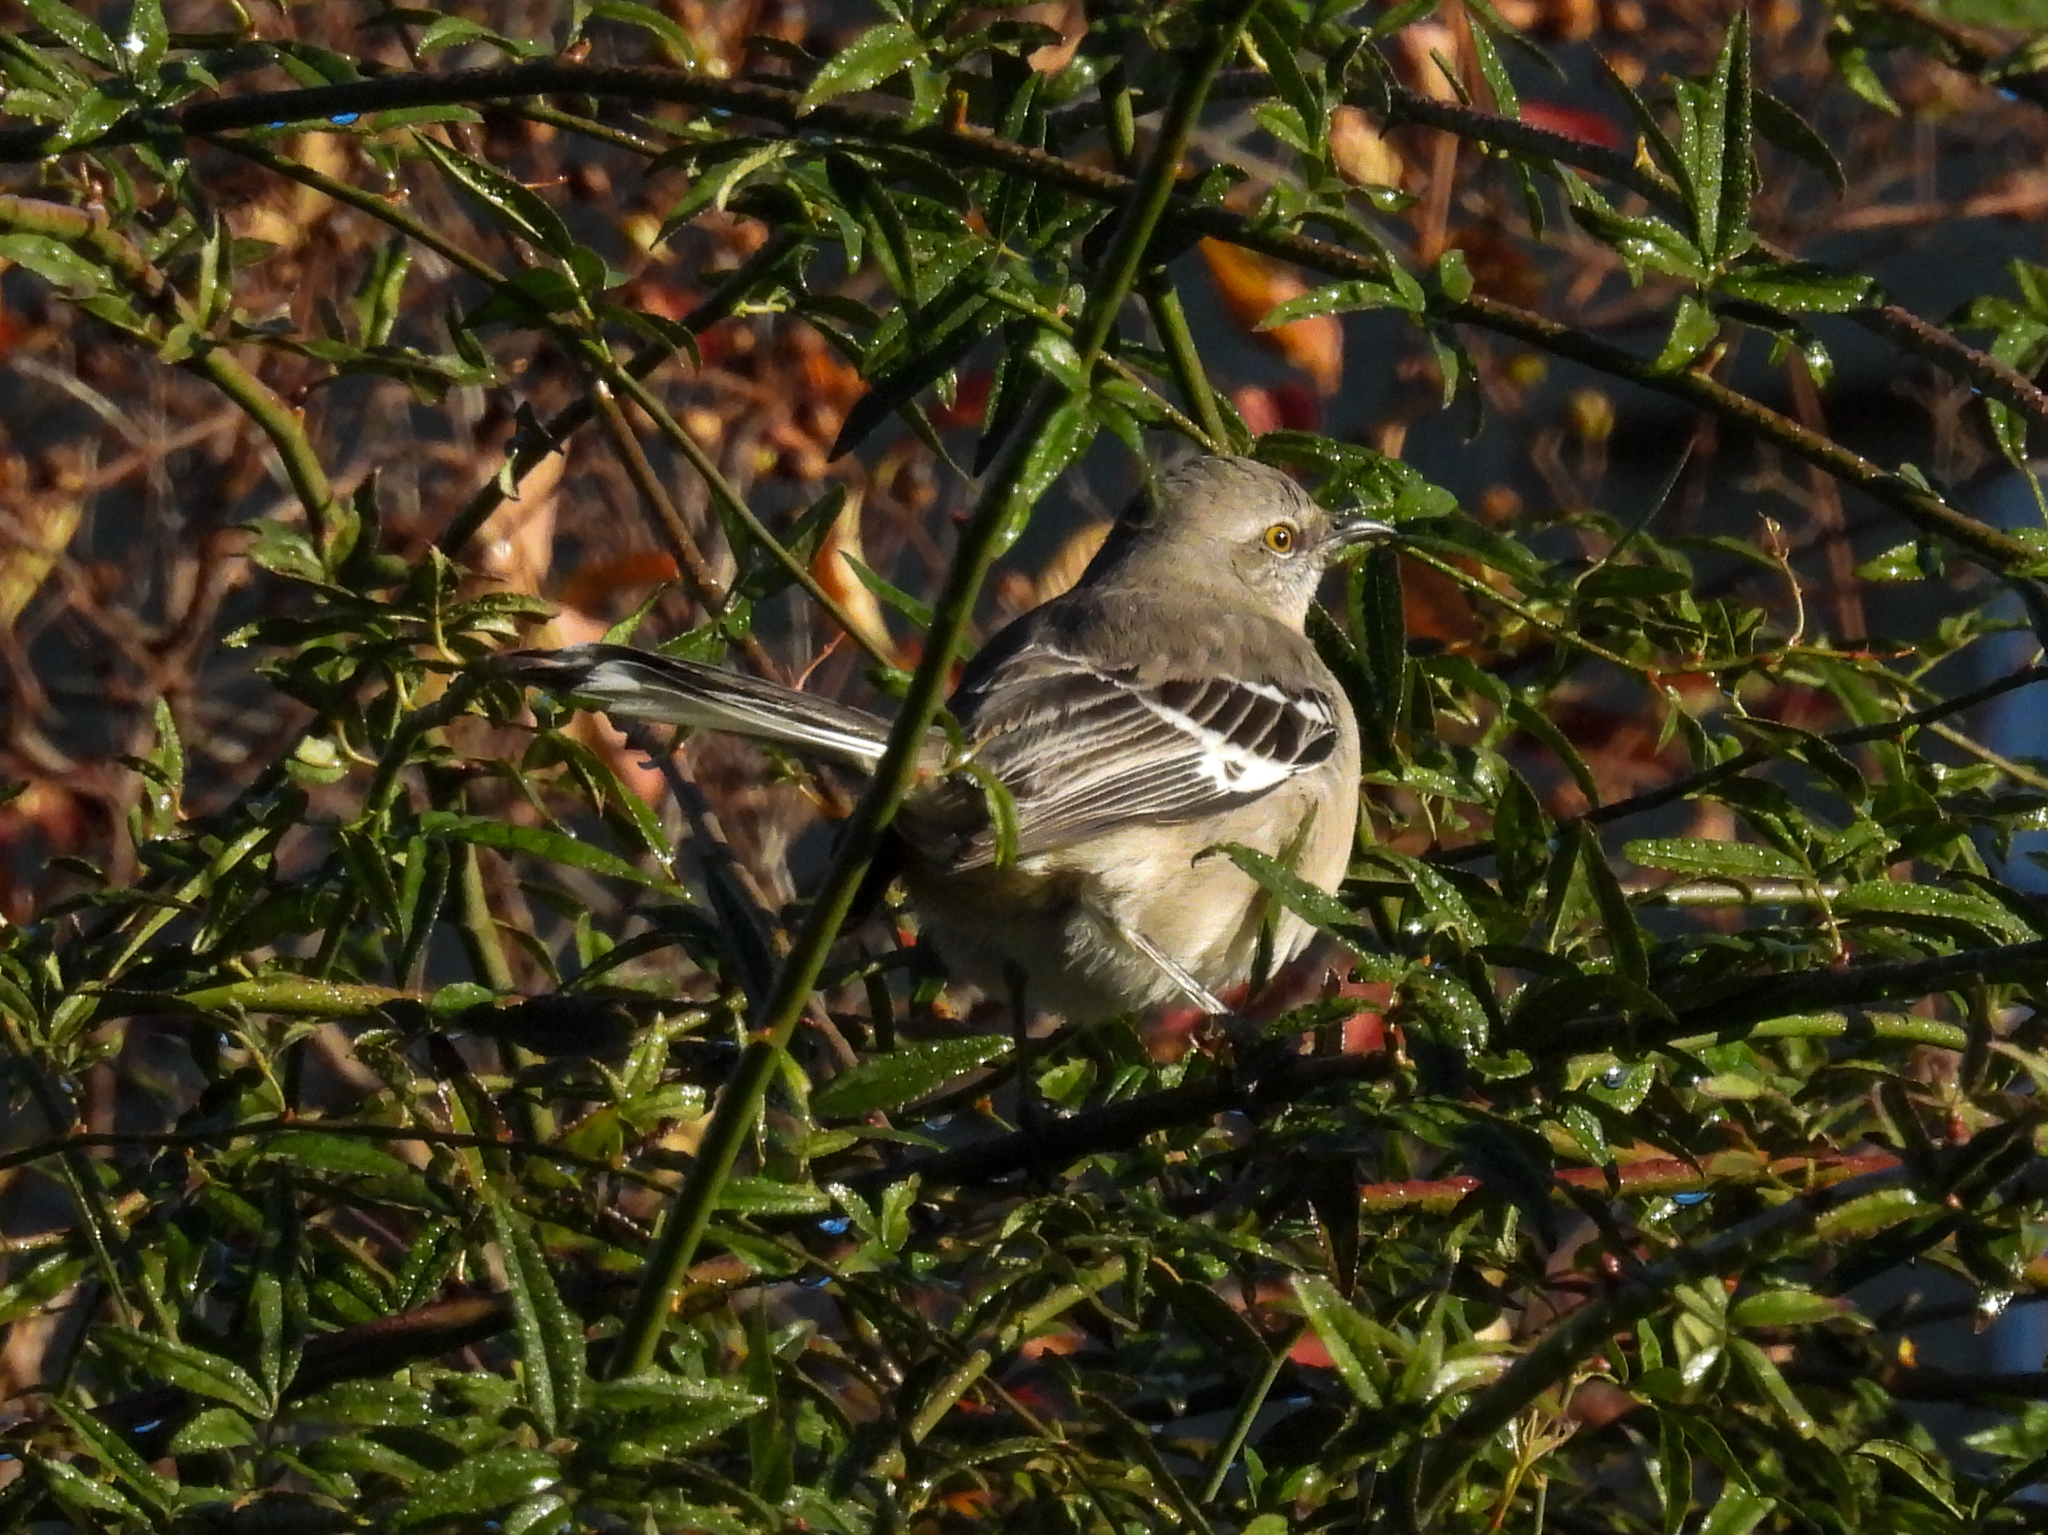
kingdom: Animalia
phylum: Chordata
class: Aves
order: Passeriformes
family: Mimidae
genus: Mimus
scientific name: Mimus polyglottos
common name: Northern mockingbird
